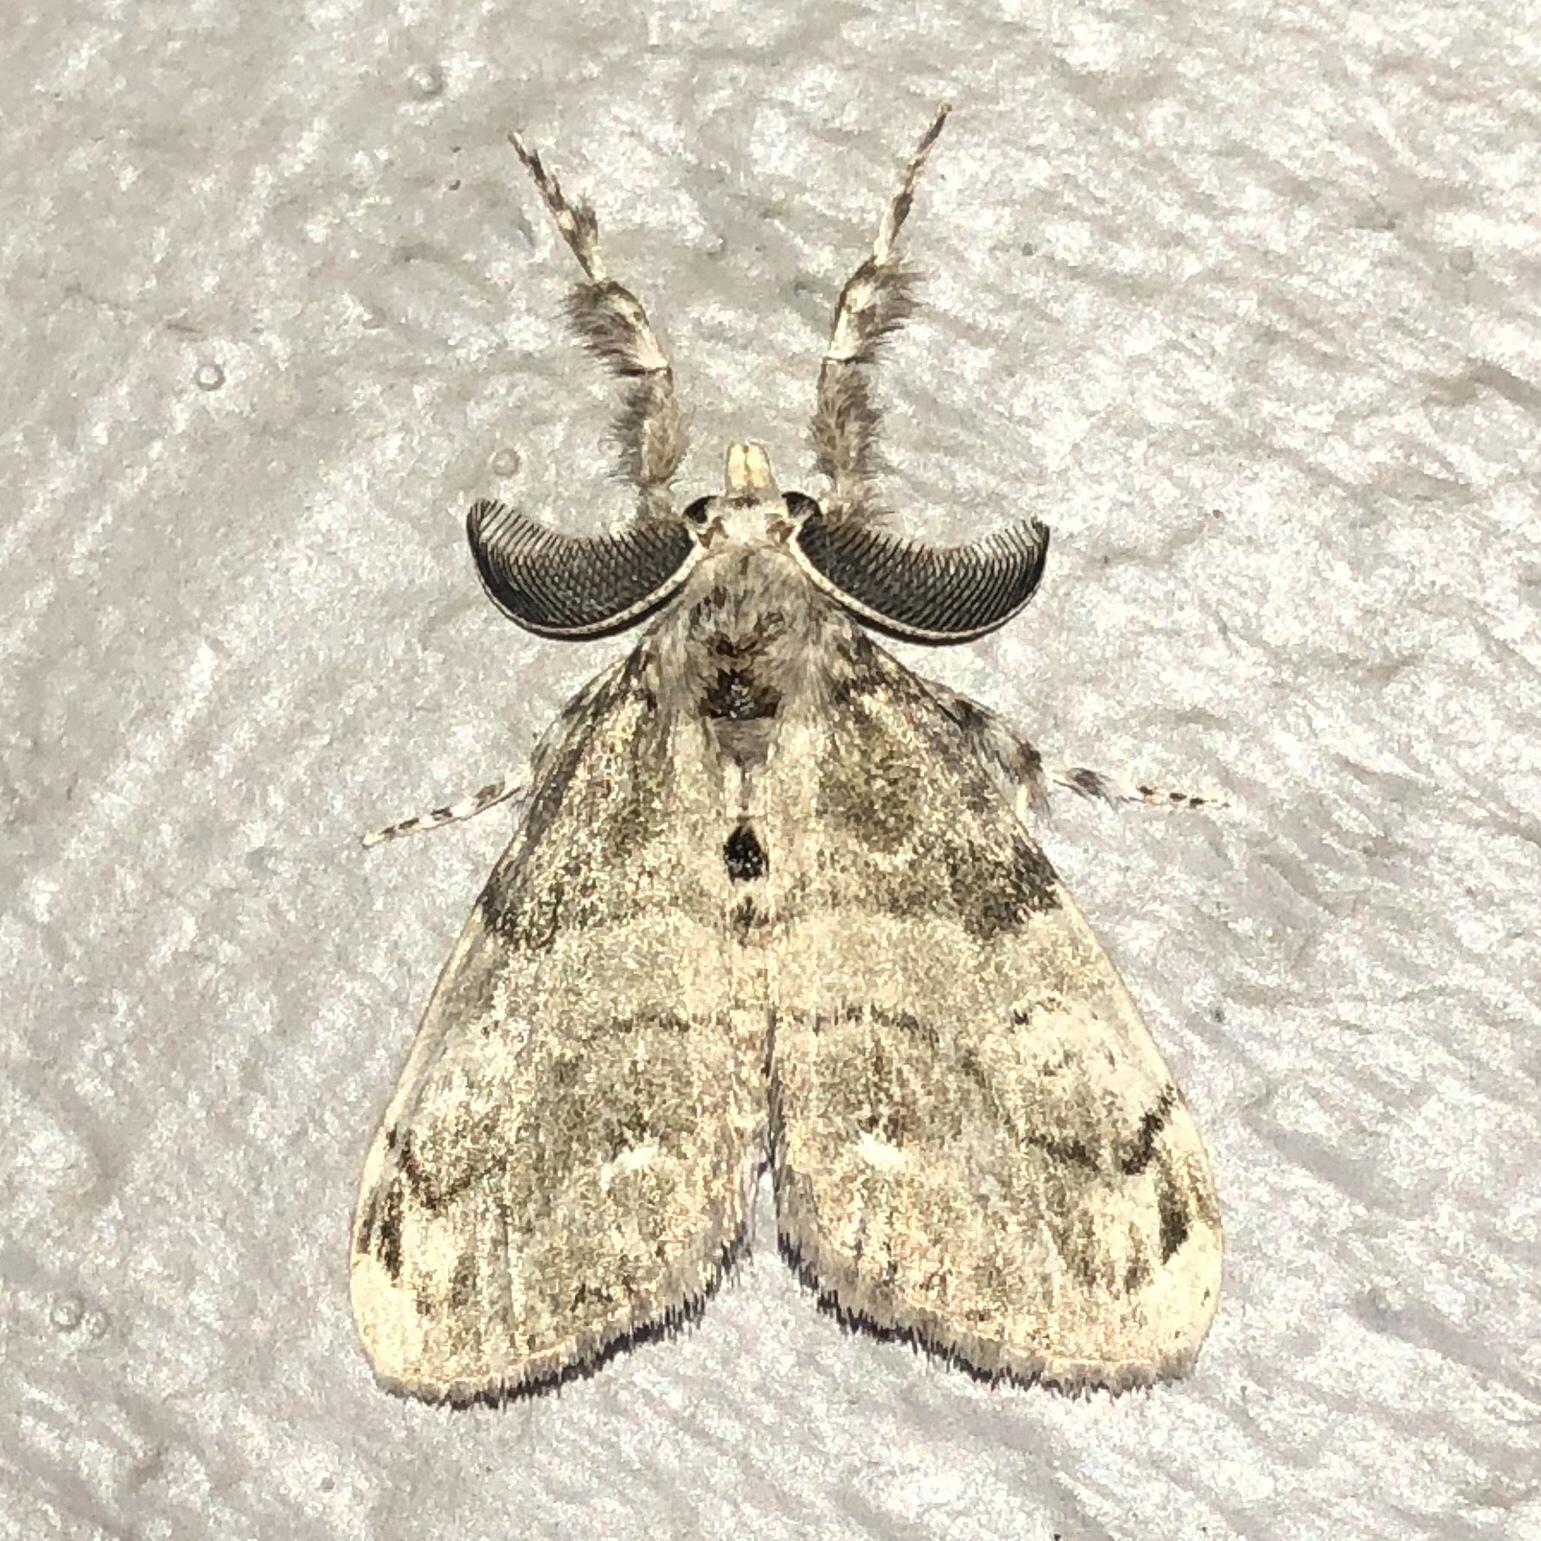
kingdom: Animalia
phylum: Arthropoda
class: Insecta
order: Lepidoptera
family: Erebidae
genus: Orgyia
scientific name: Orgyia leucostigma
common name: White-marked tussock moth
